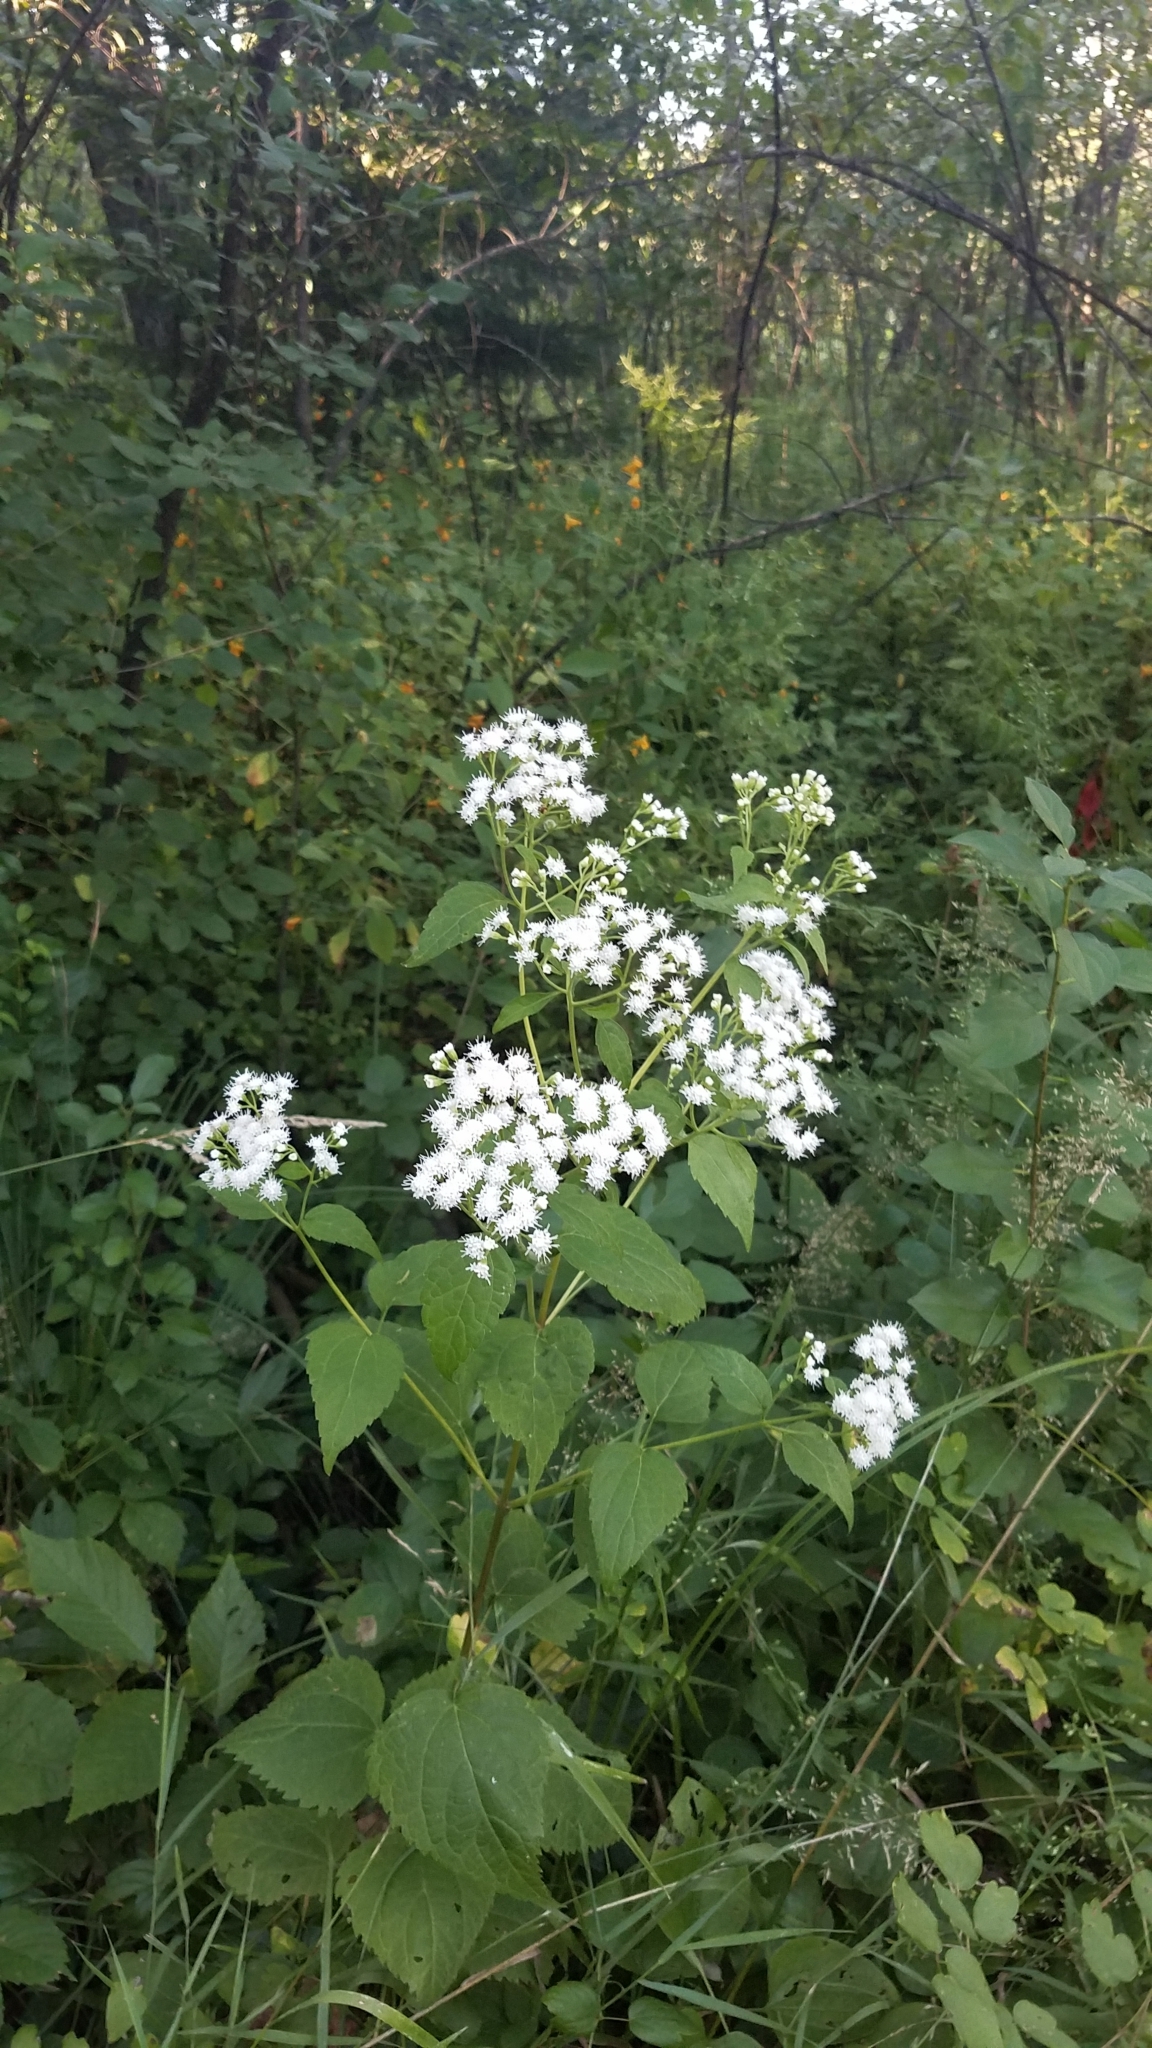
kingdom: Plantae
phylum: Tracheophyta
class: Magnoliopsida
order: Asterales
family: Asteraceae
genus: Ageratina
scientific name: Ageratina altissima
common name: White snakeroot
